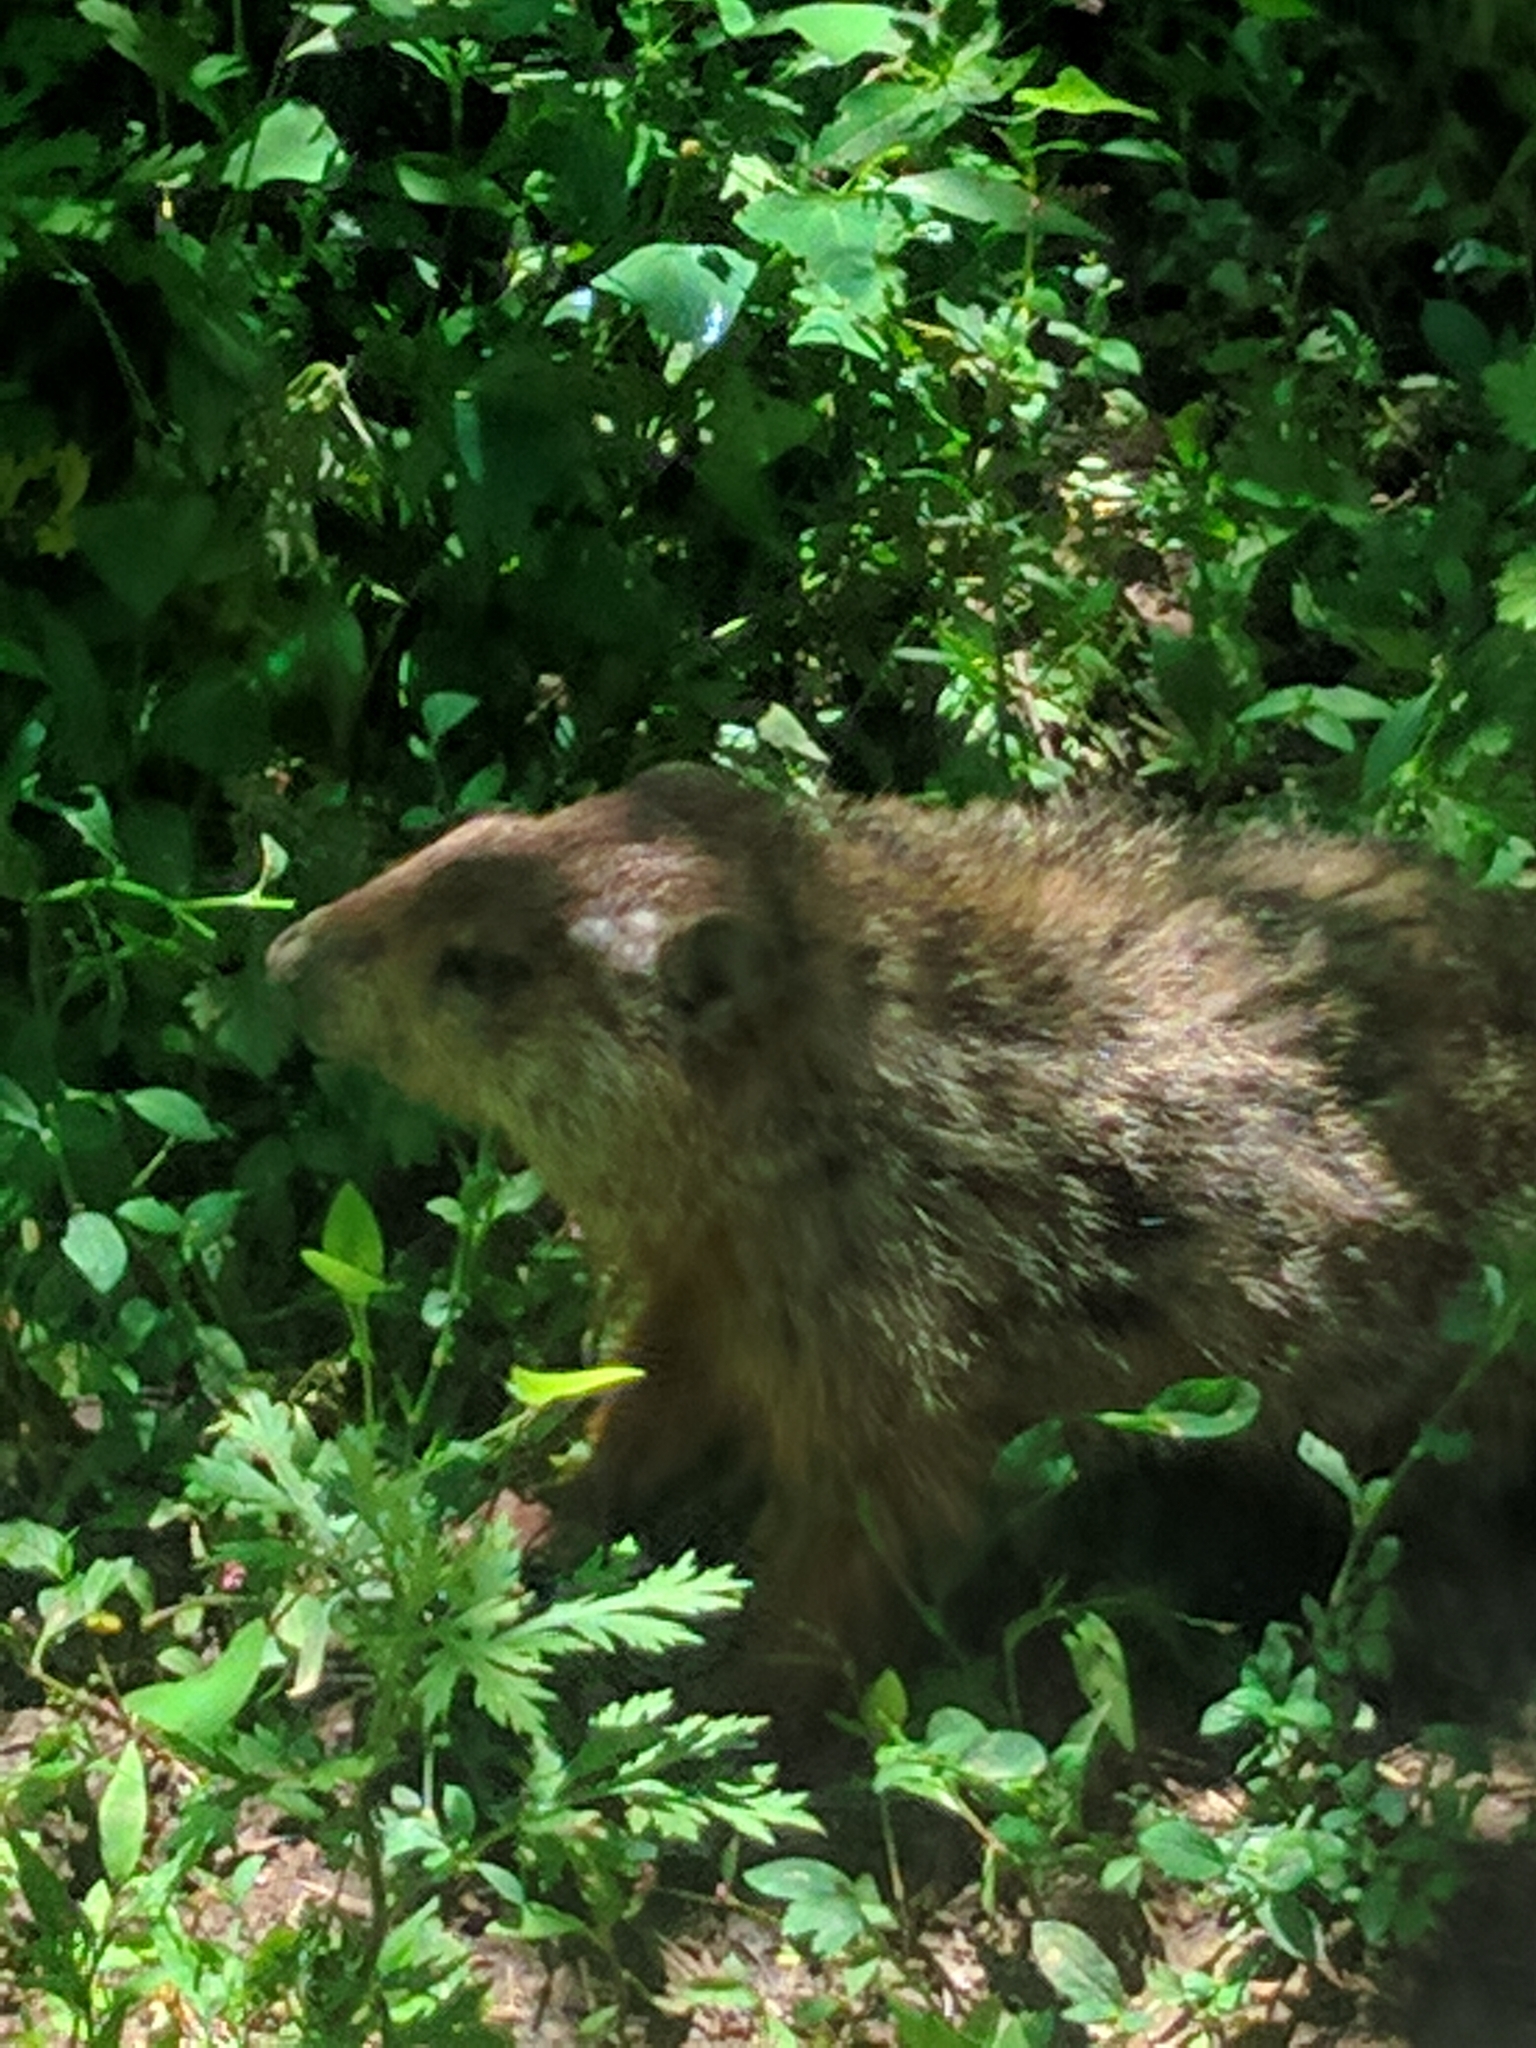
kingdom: Animalia
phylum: Chordata
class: Mammalia
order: Rodentia
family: Sciuridae
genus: Marmota
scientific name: Marmota monax
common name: Groundhog
